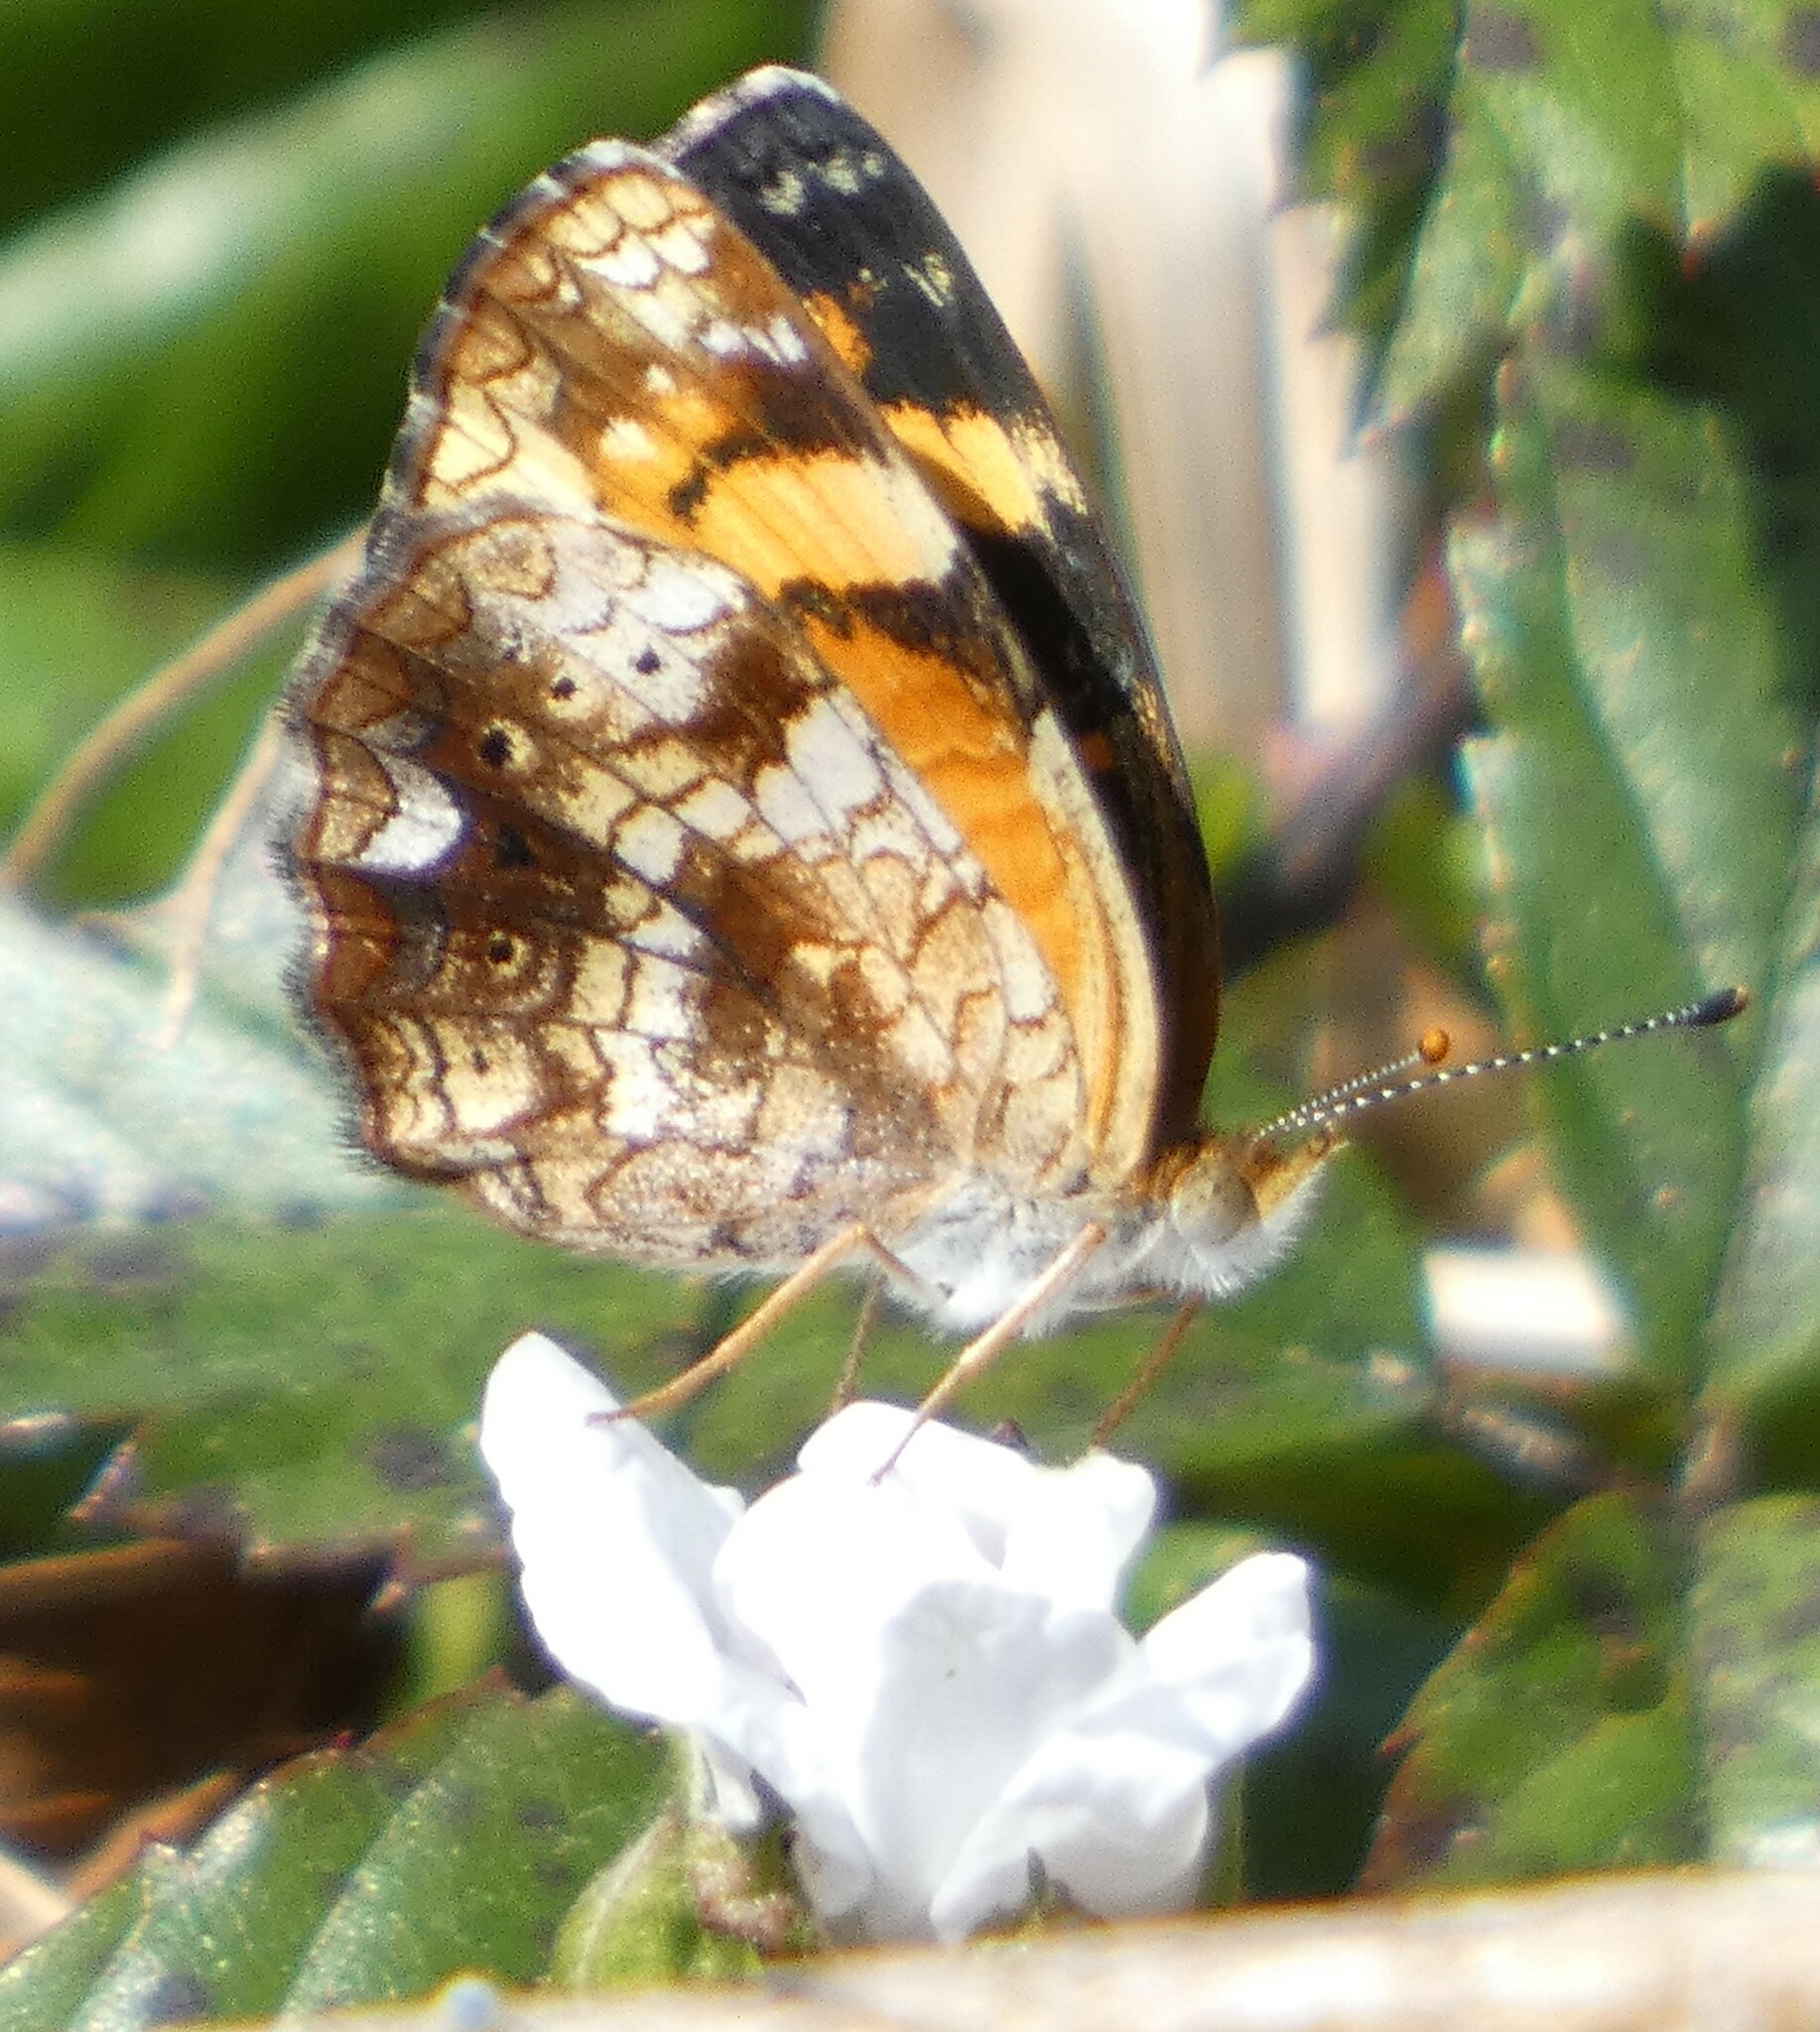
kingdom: Animalia
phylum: Arthropoda
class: Insecta
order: Lepidoptera
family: Nymphalidae
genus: Phyciodes
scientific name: Phyciodes tharos
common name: Pearl crescent
